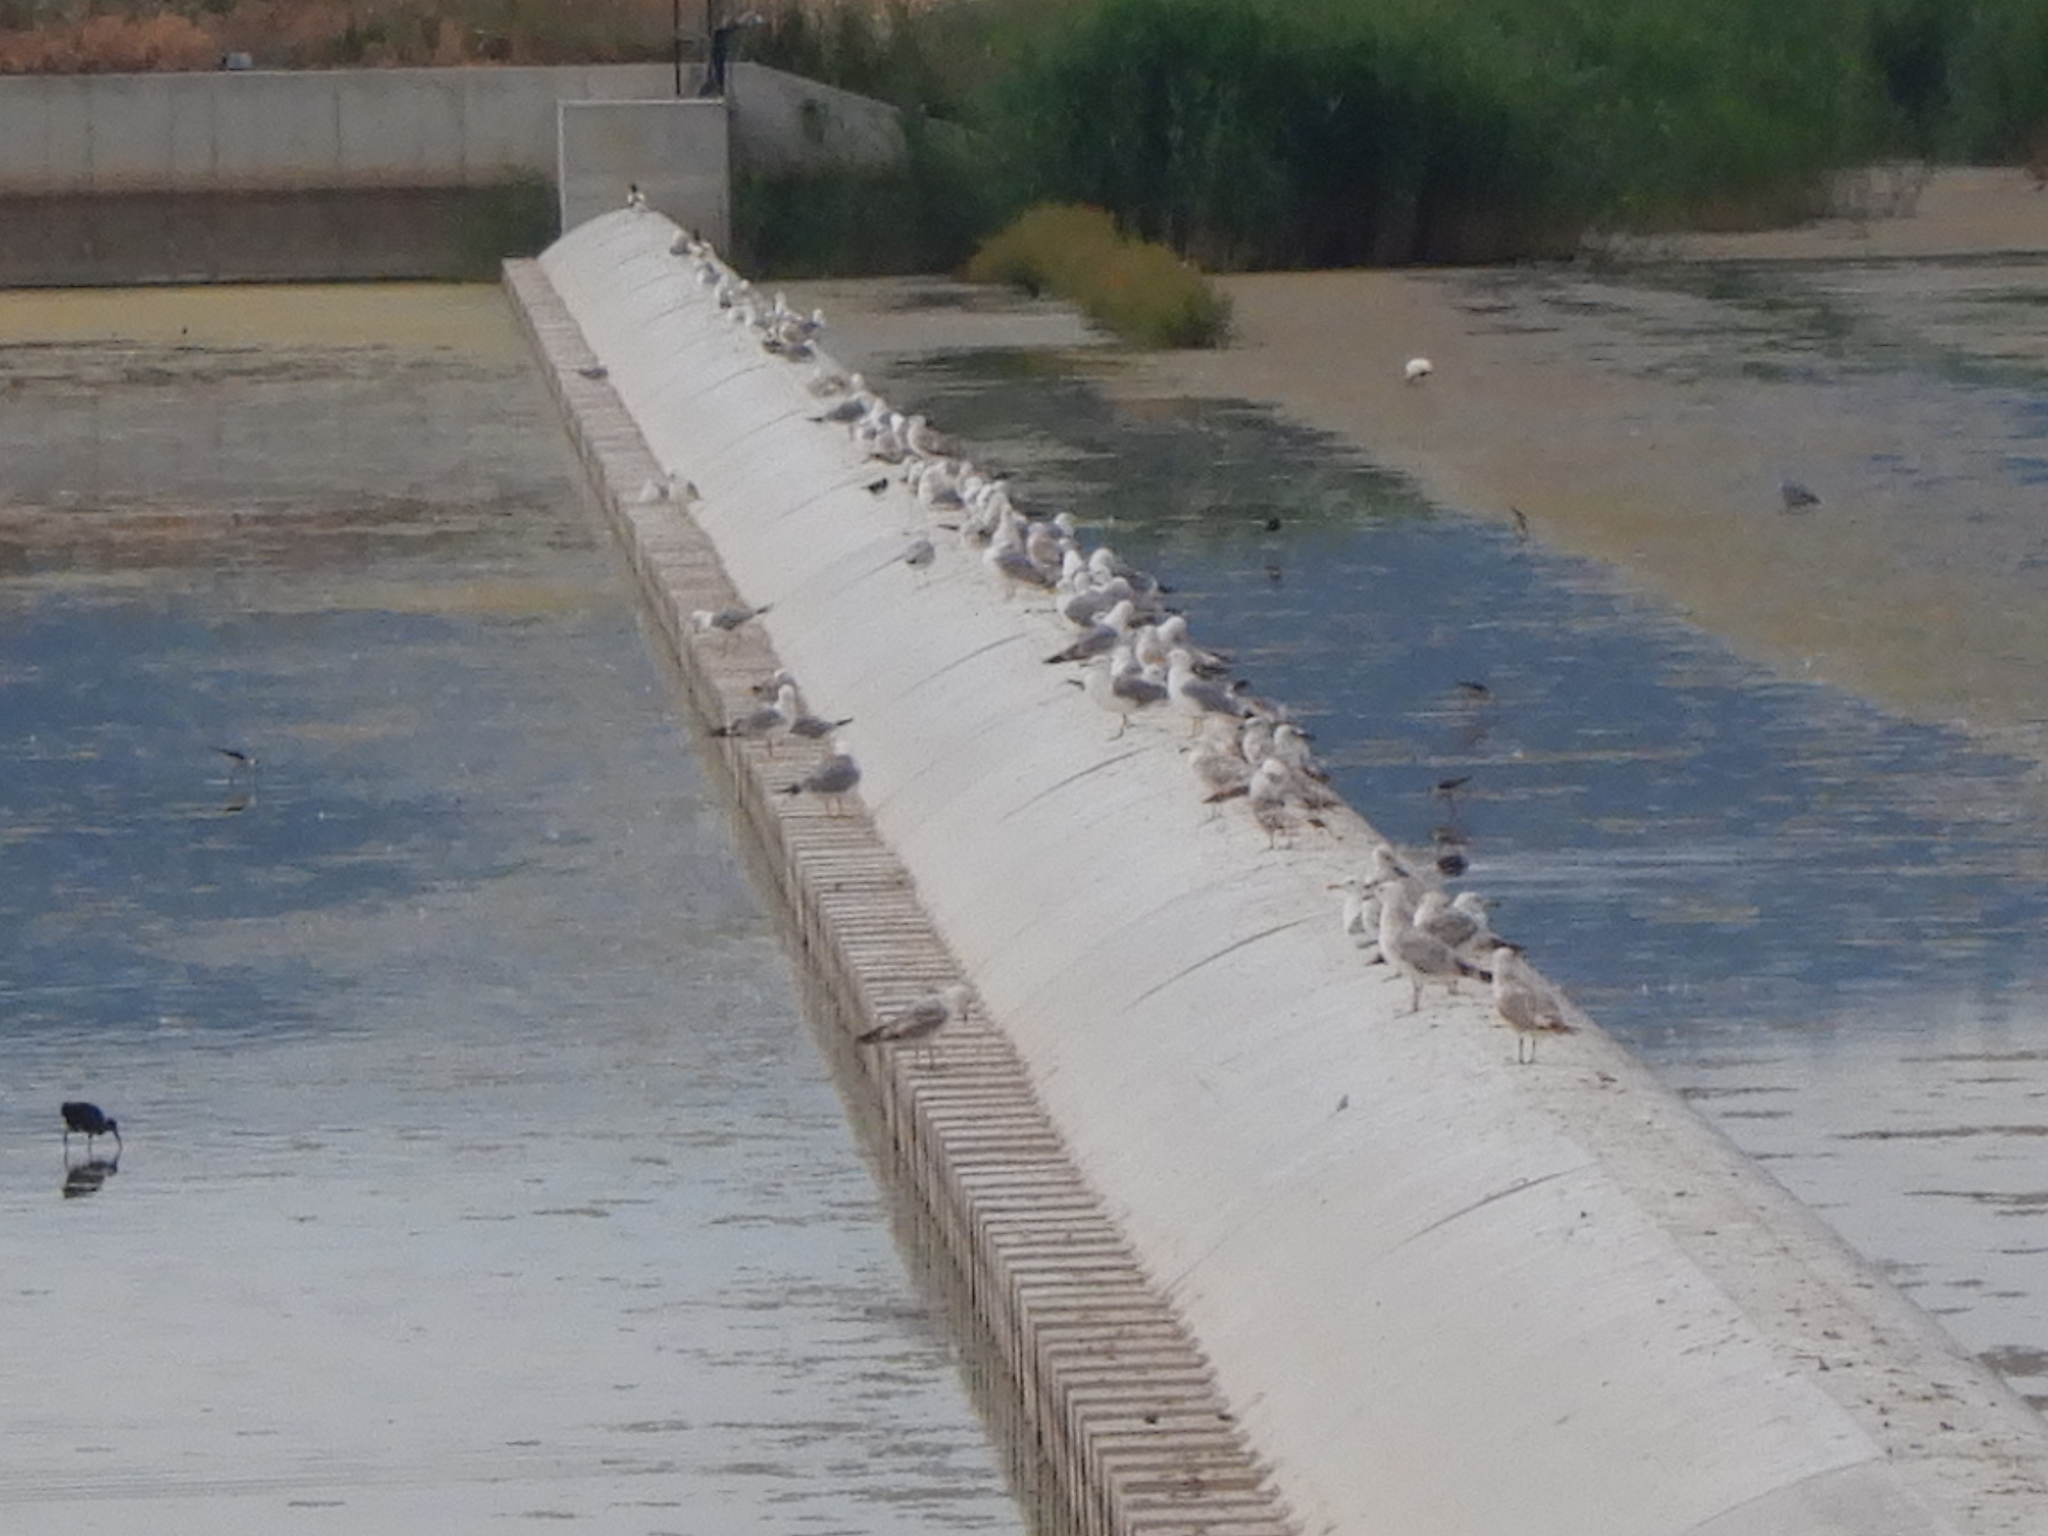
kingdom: Animalia
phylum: Chordata
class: Aves
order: Charadriiformes
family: Laridae
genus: Larus
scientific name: Larus michahellis
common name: Yellow-legged gull
